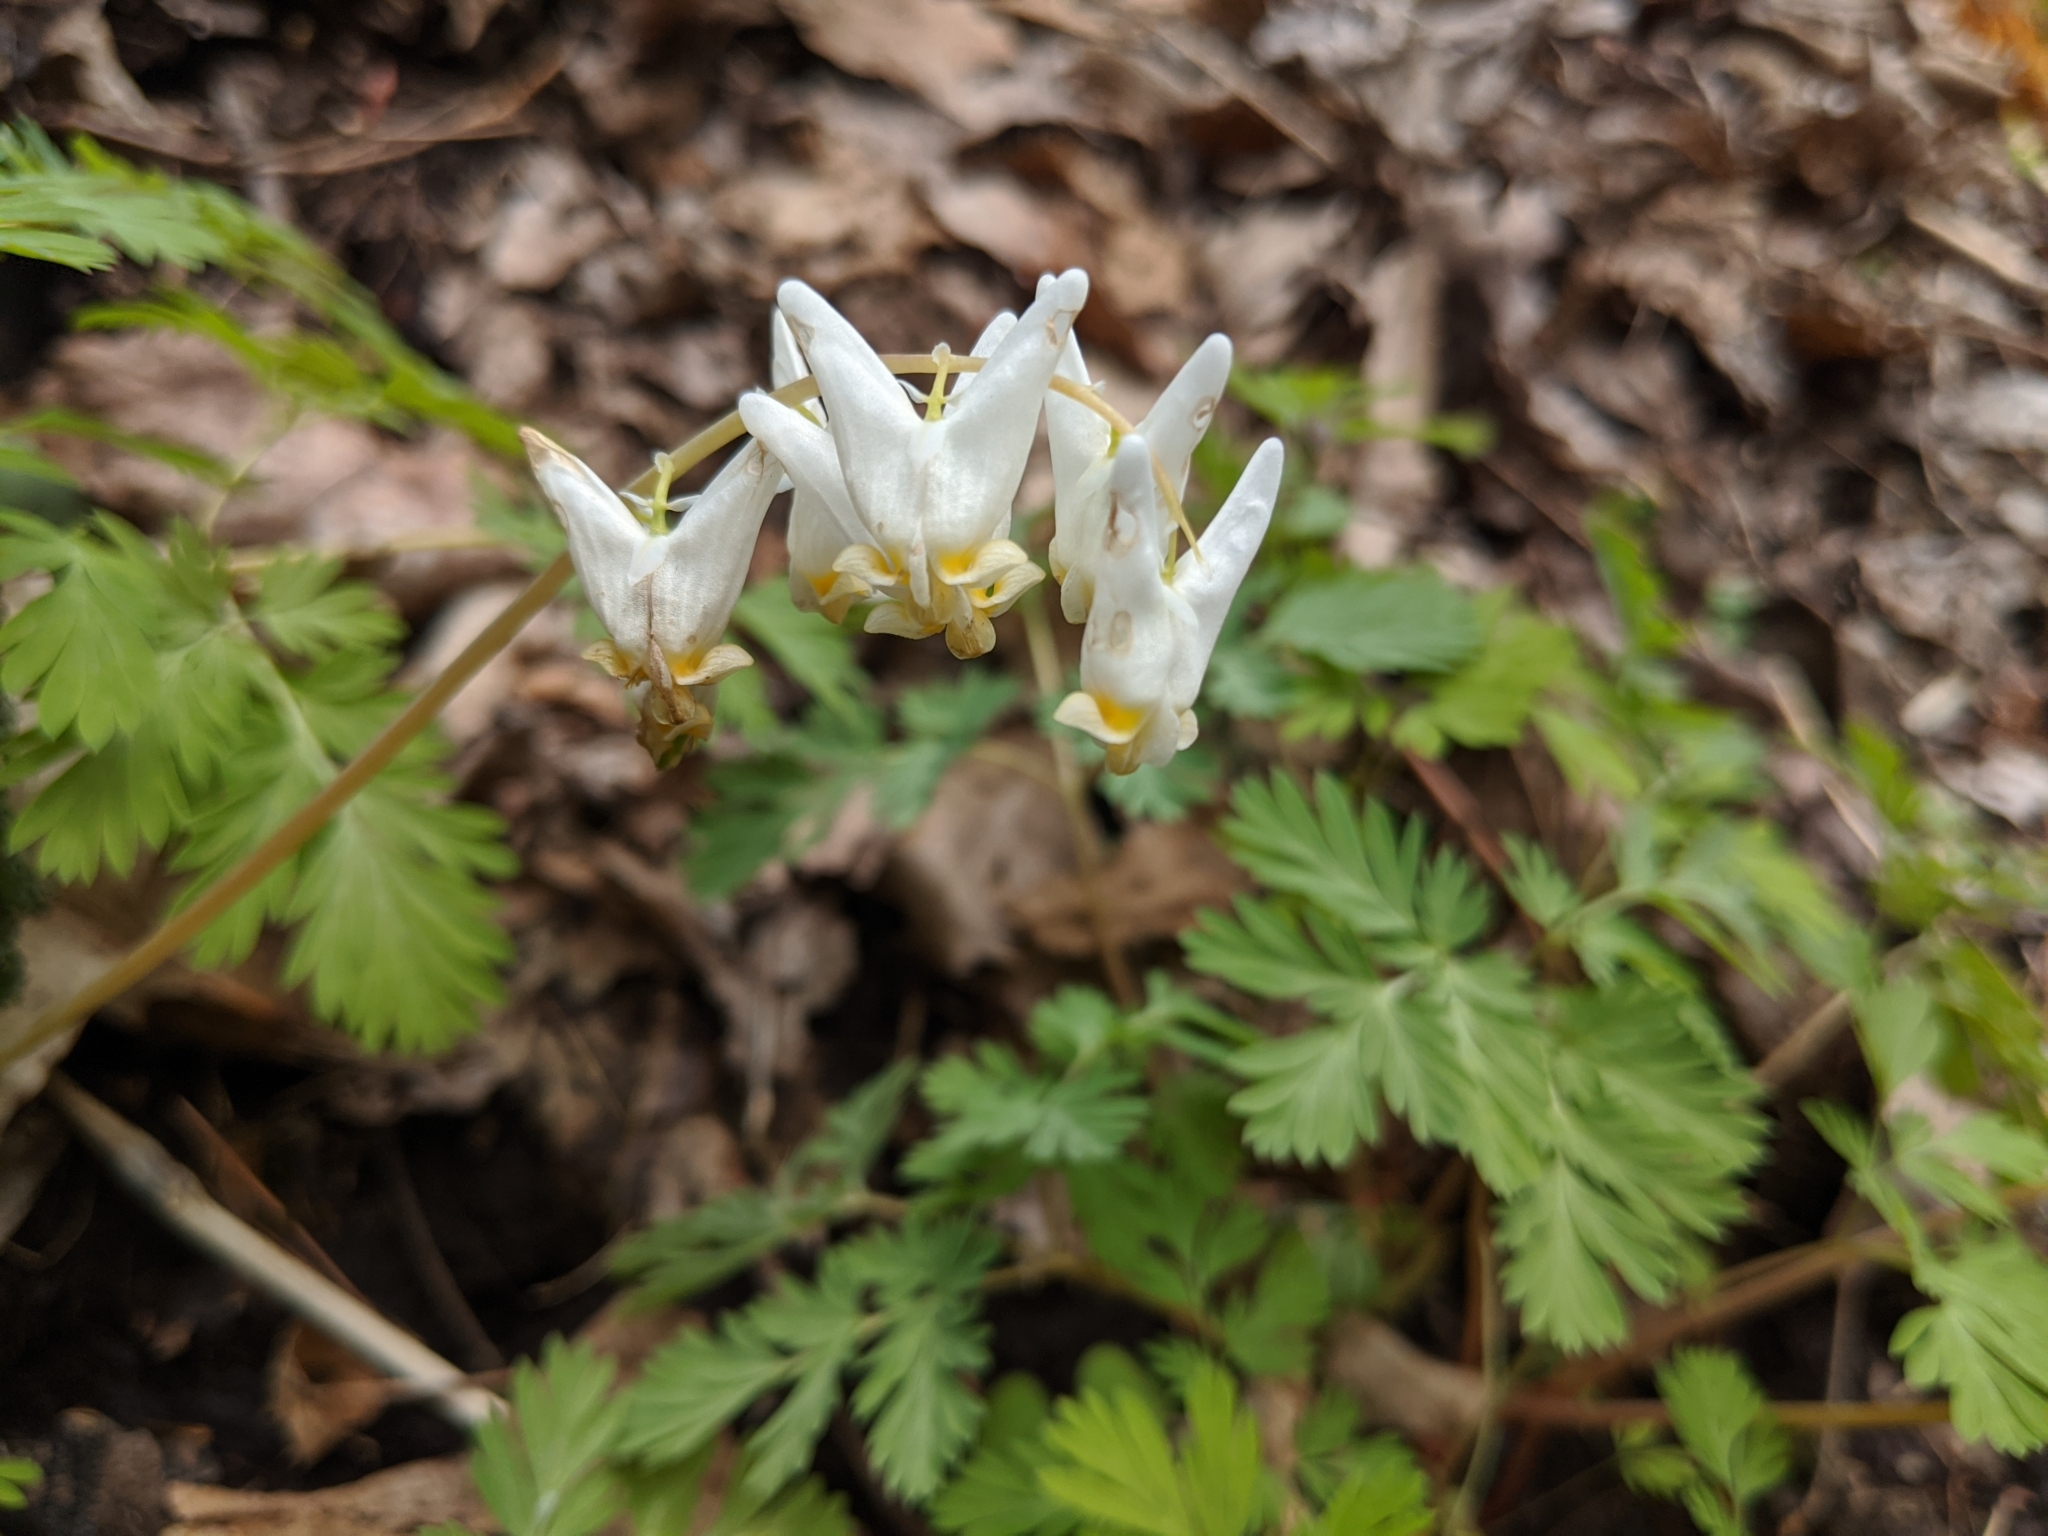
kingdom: Plantae
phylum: Tracheophyta
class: Magnoliopsida
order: Ranunculales
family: Papaveraceae
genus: Dicentra
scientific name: Dicentra cucullaria
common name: Dutchman's breeches
